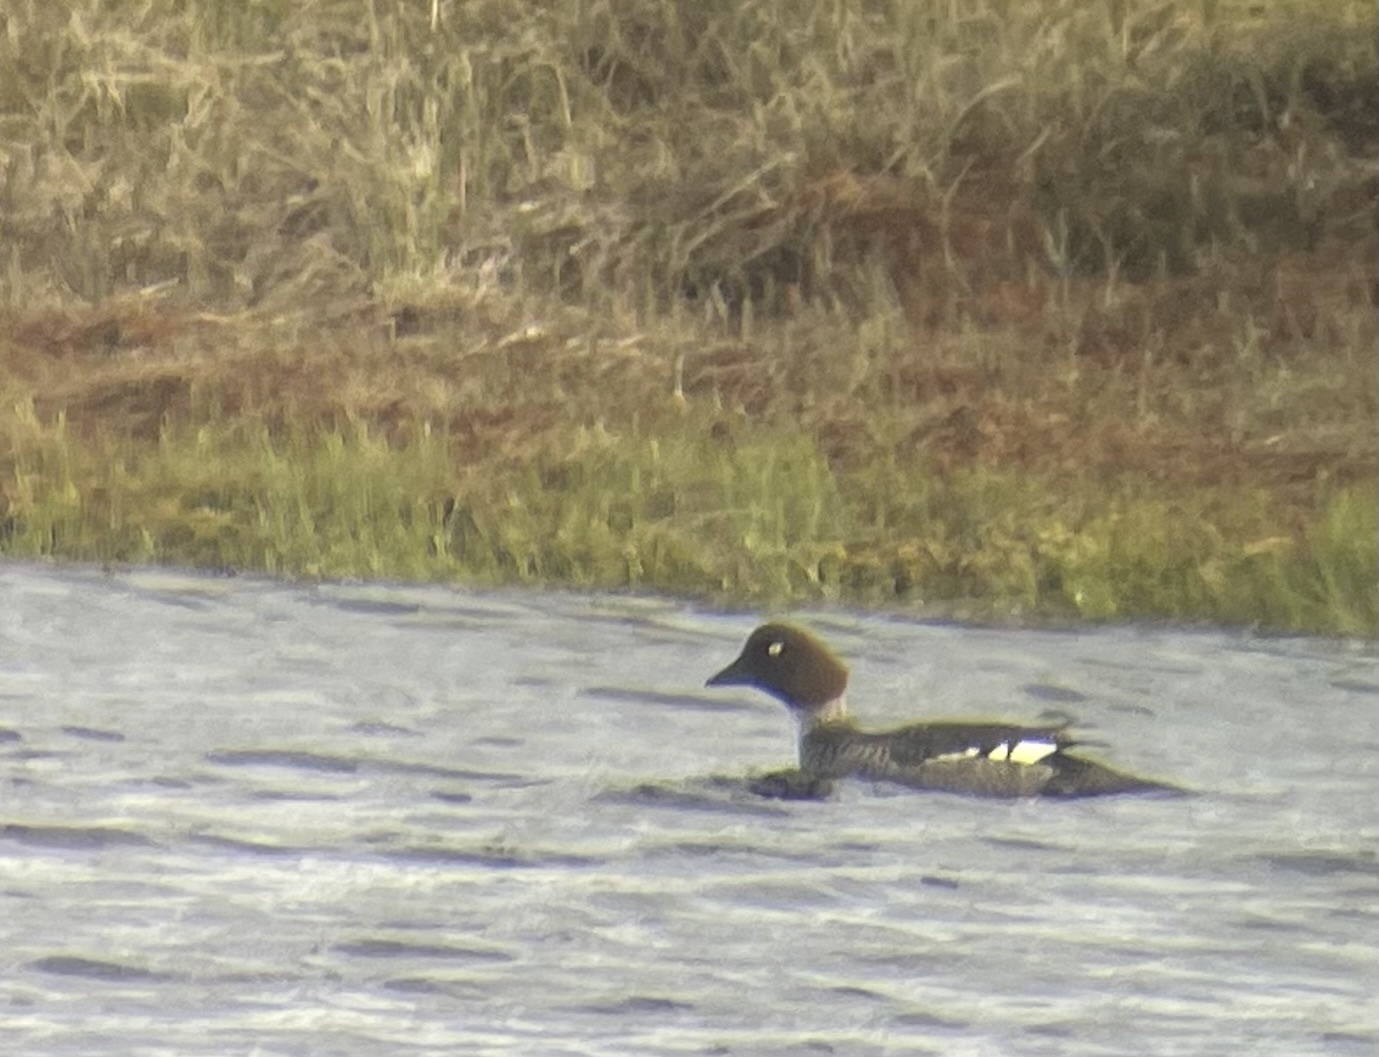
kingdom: Animalia
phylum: Chordata
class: Aves
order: Anseriformes
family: Anatidae
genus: Bucephala
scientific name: Bucephala clangula
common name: Common goldeneye
